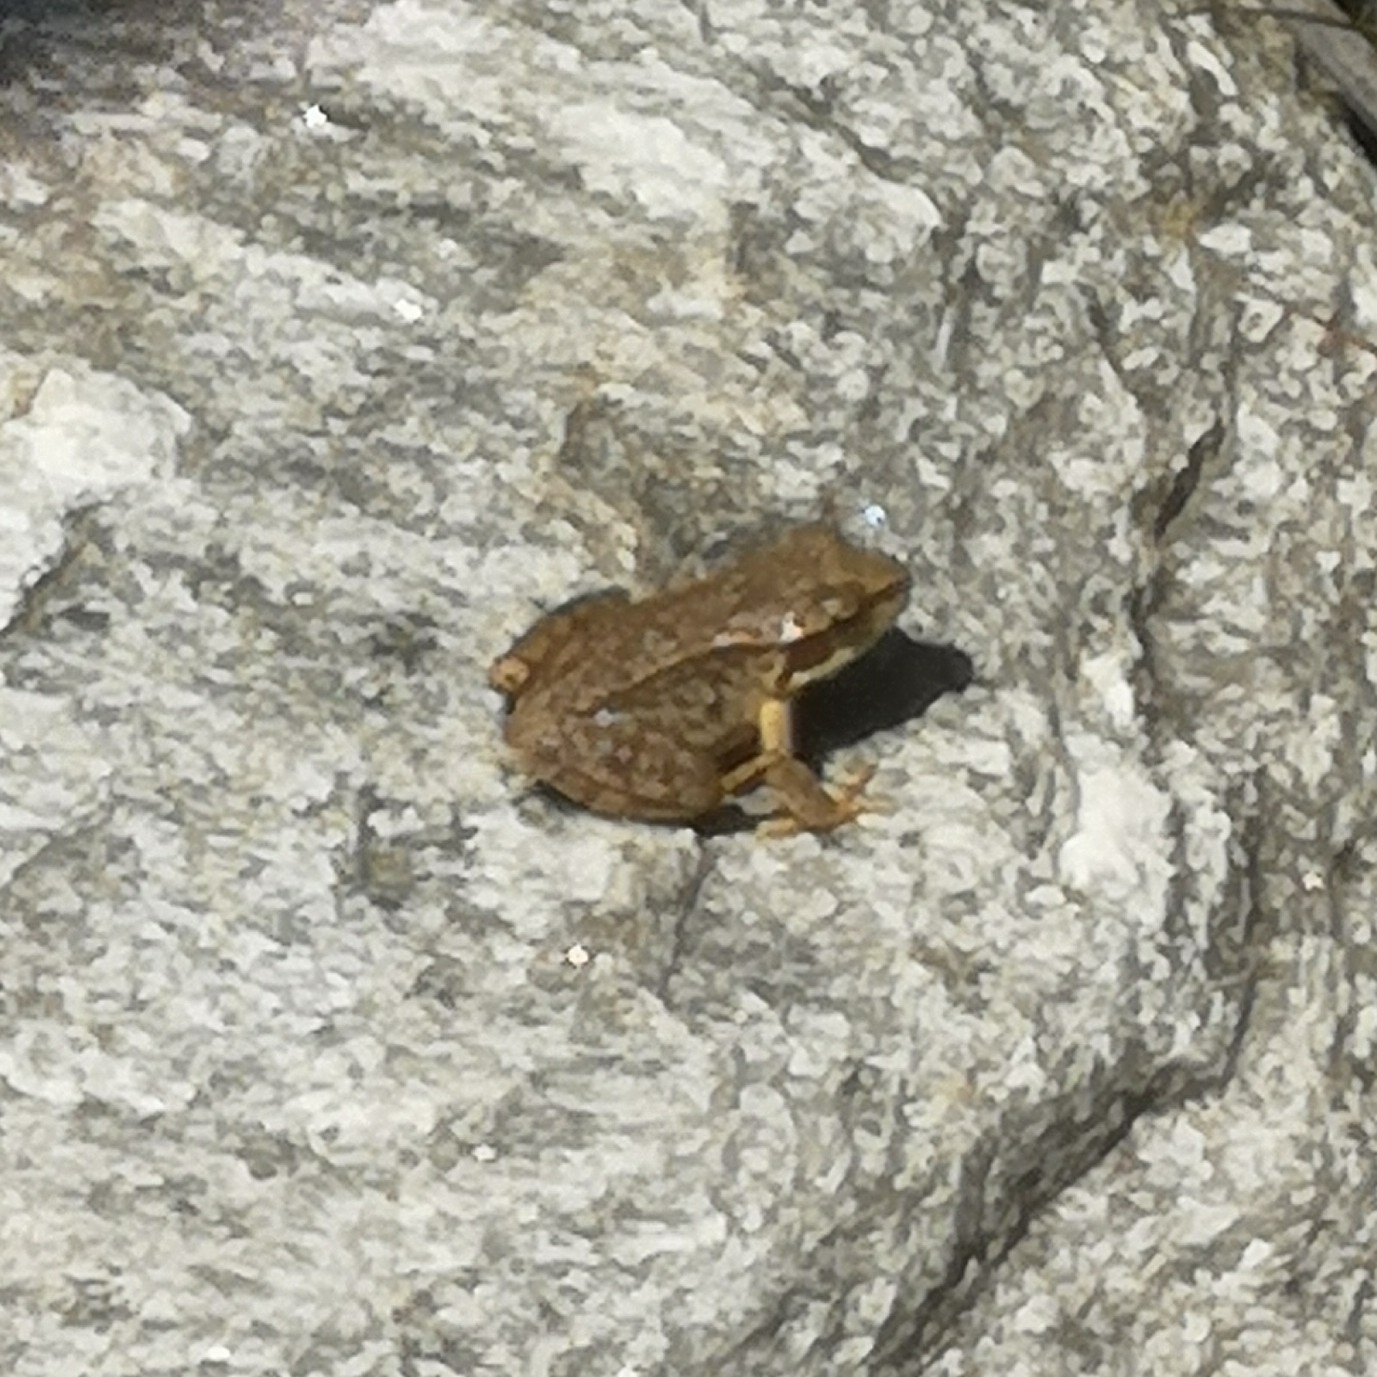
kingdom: Animalia
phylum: Chordata
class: Amphibia
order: Anura
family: Ranidae
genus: Rana
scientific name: Rana temporaria
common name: Common frog
